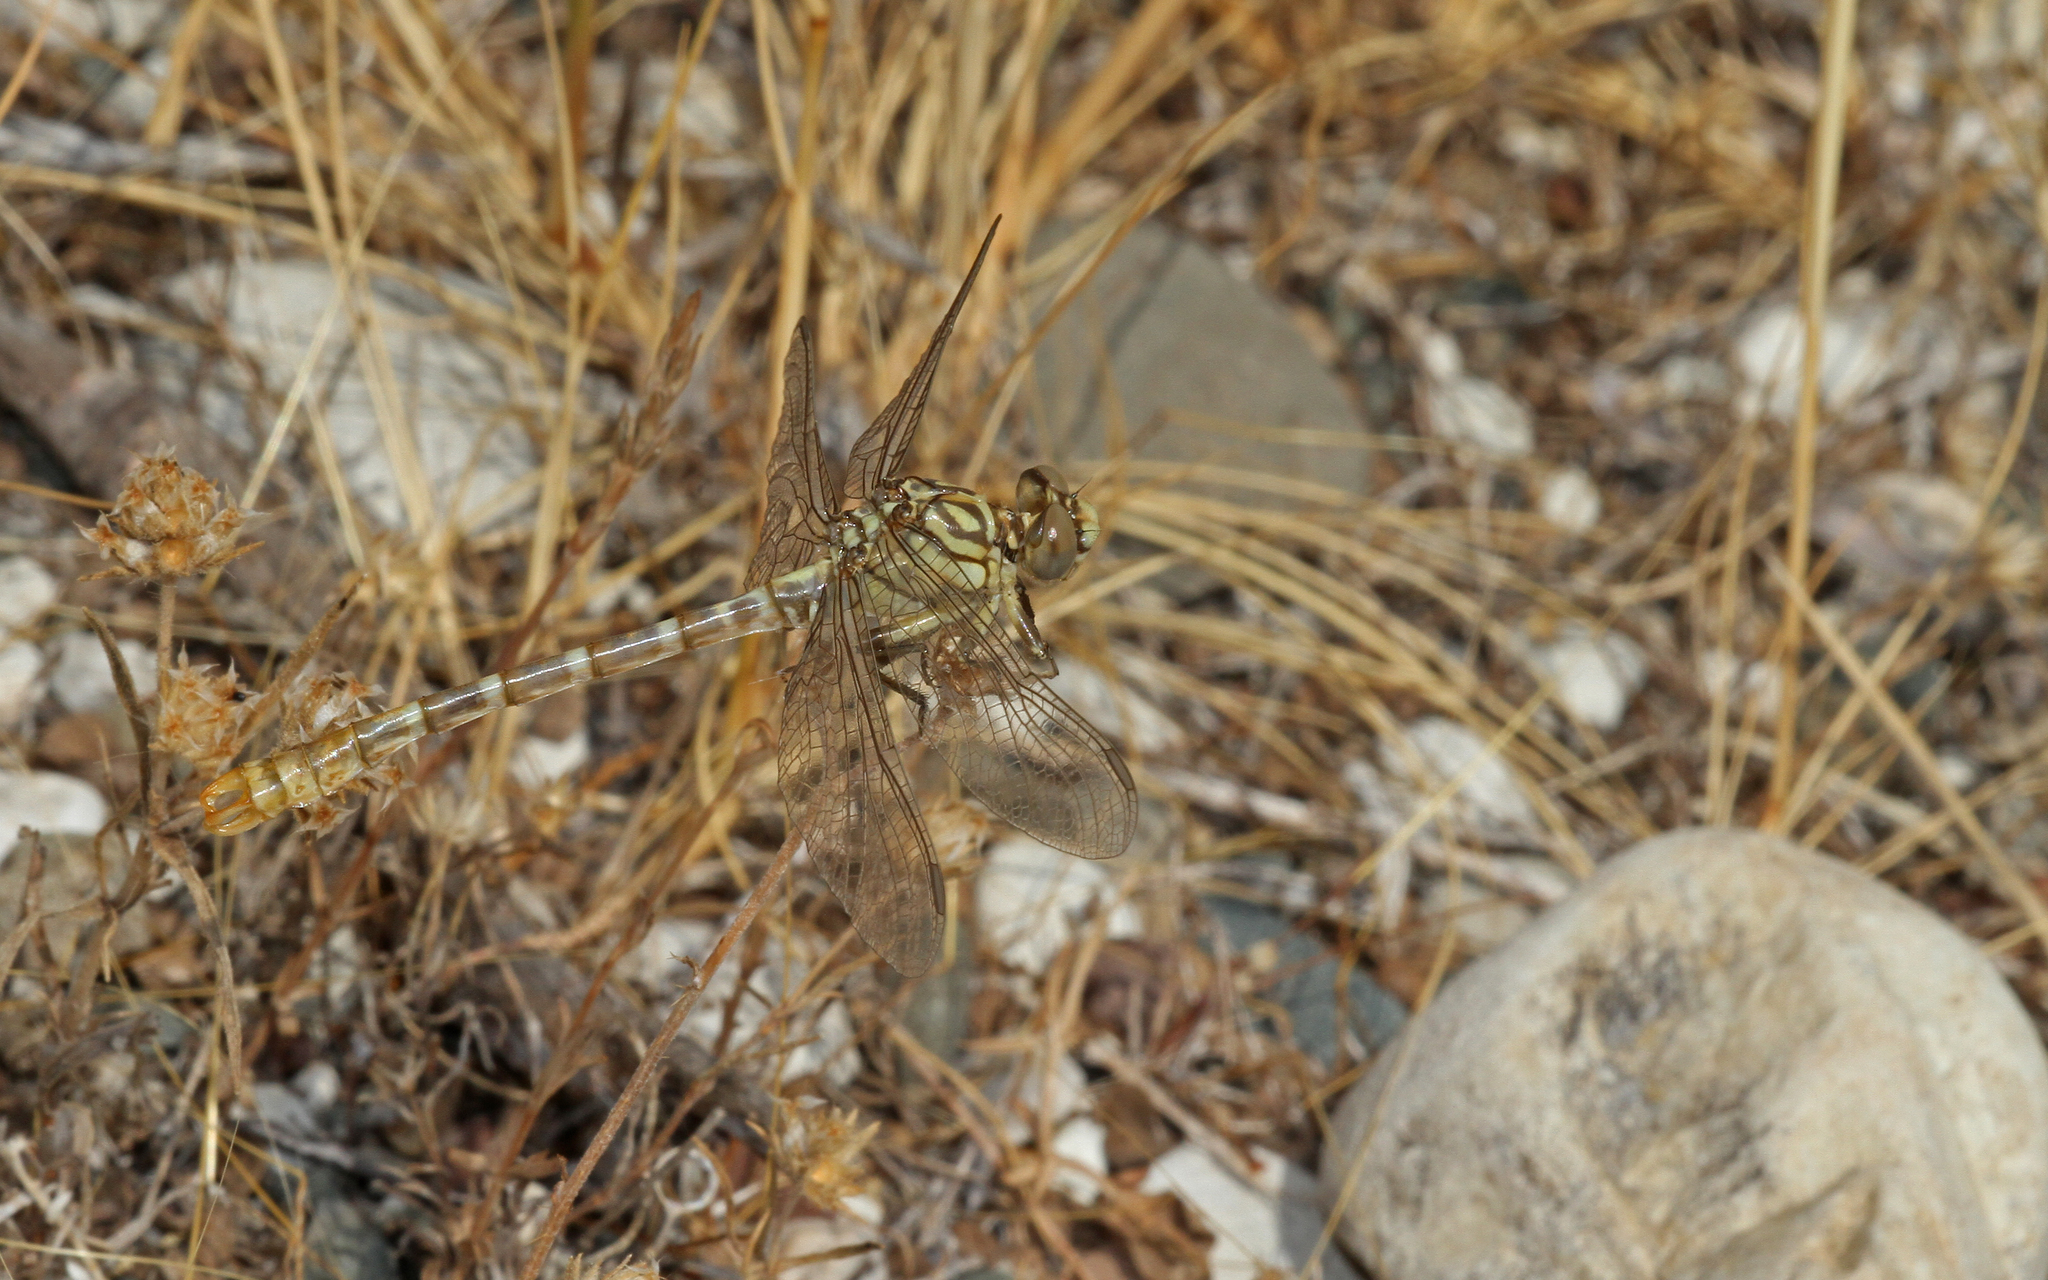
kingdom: Animalia
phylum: Arthropoda
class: Insecta
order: Odonata
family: Gomphidae
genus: Onychogomphus
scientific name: Onychogomphus forcipatus
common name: Small pincertail
